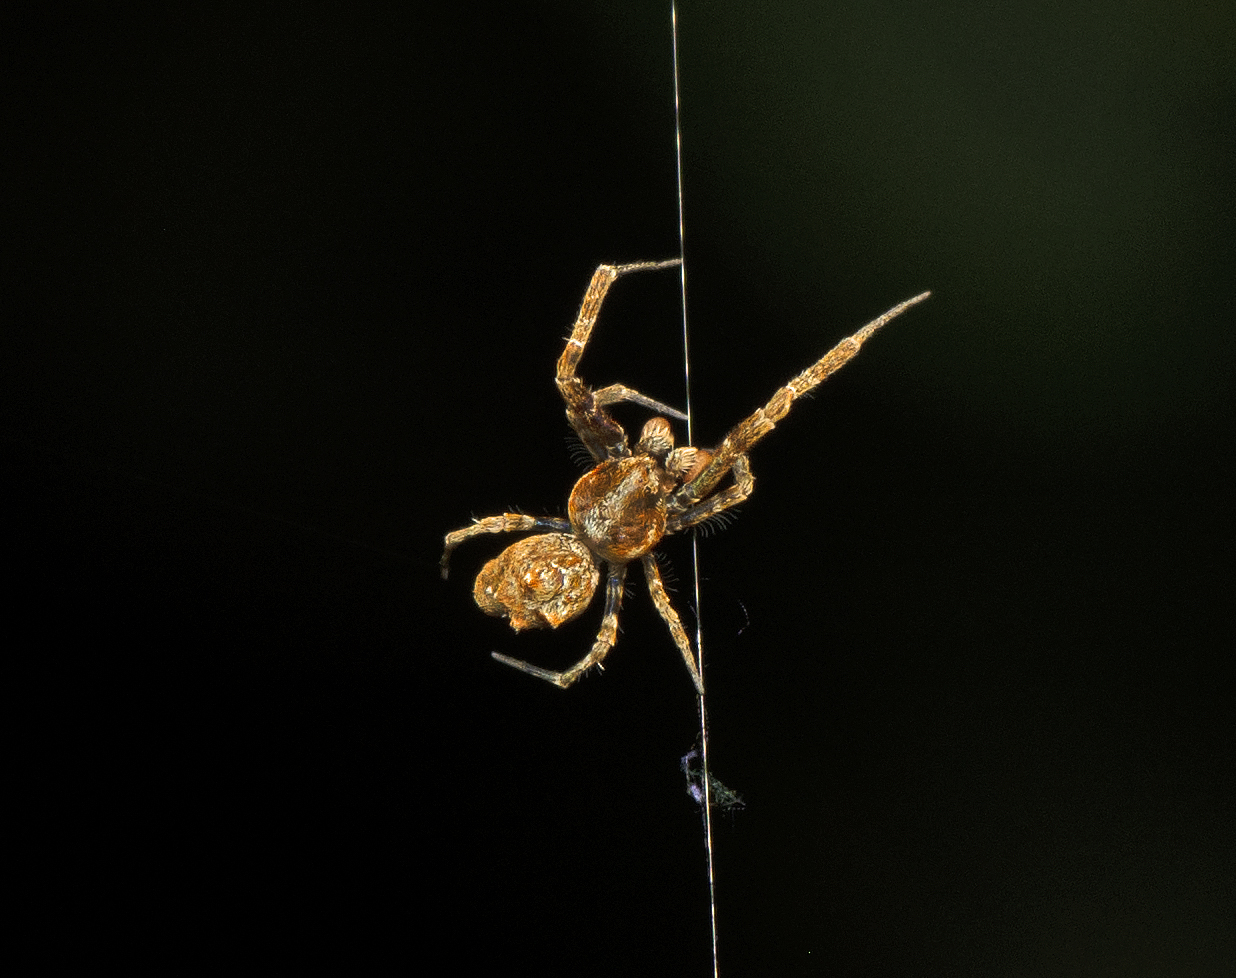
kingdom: Animalia
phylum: Arthropoda
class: Arachnida
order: Araneae
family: Uloboridae
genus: Philoponella
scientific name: Philoponella congregabilis
